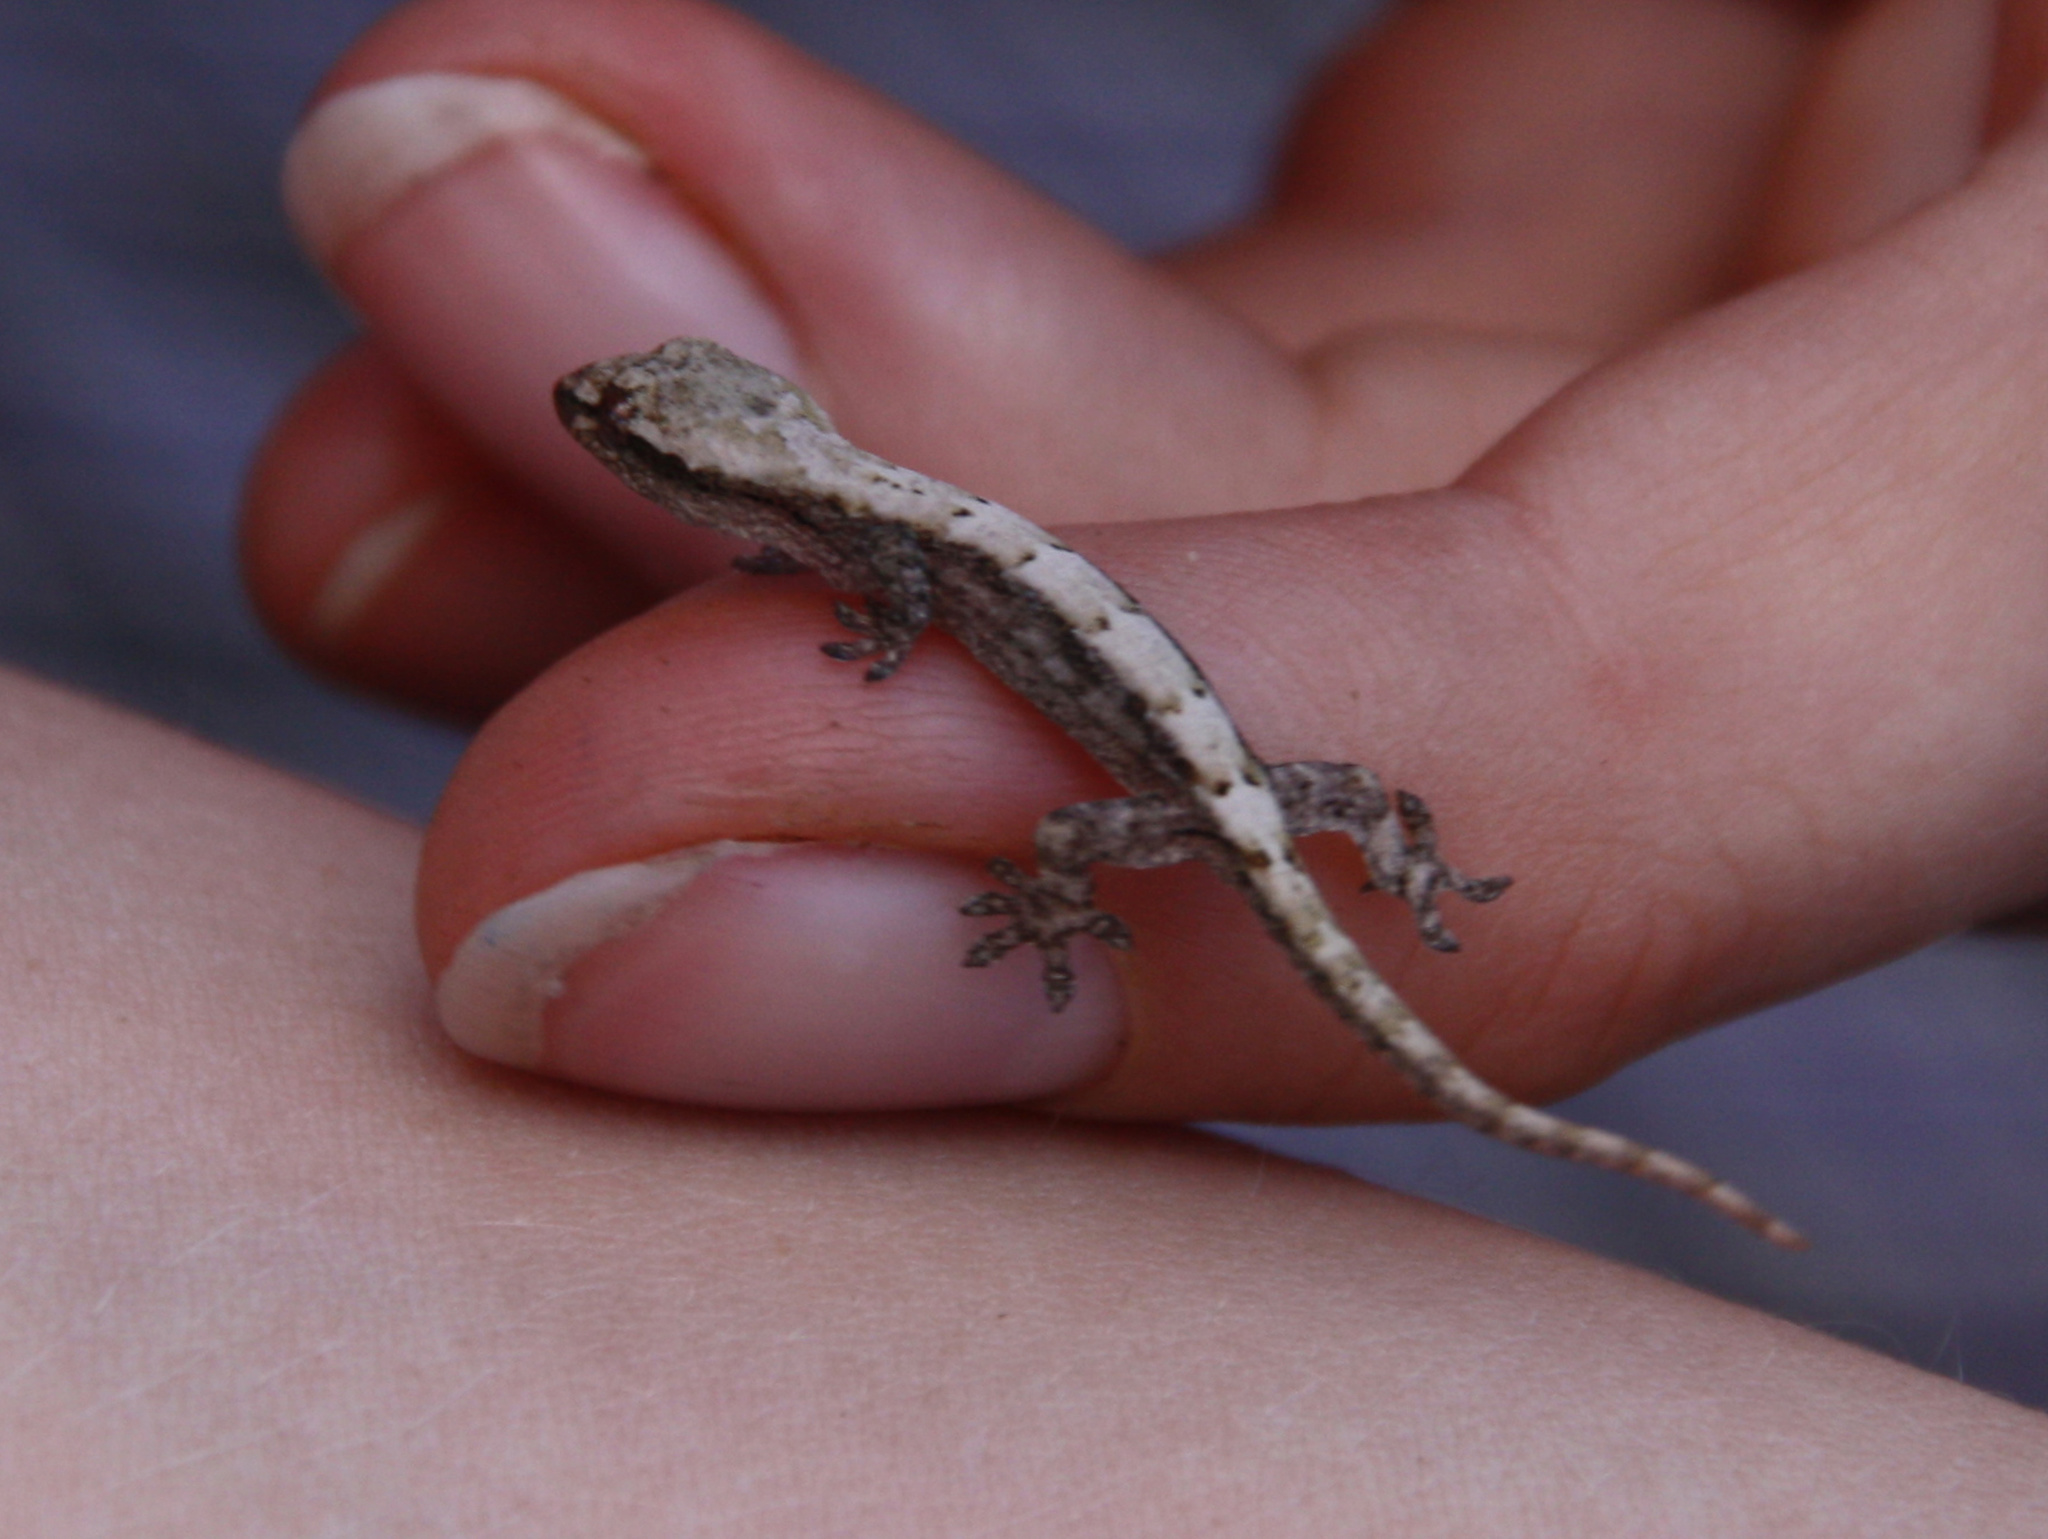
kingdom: Animalia
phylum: Chordata
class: Squamata
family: Gekkonidae
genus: Lepidodactylus
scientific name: Lepidodactylus lugubris
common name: Mourning gecko
